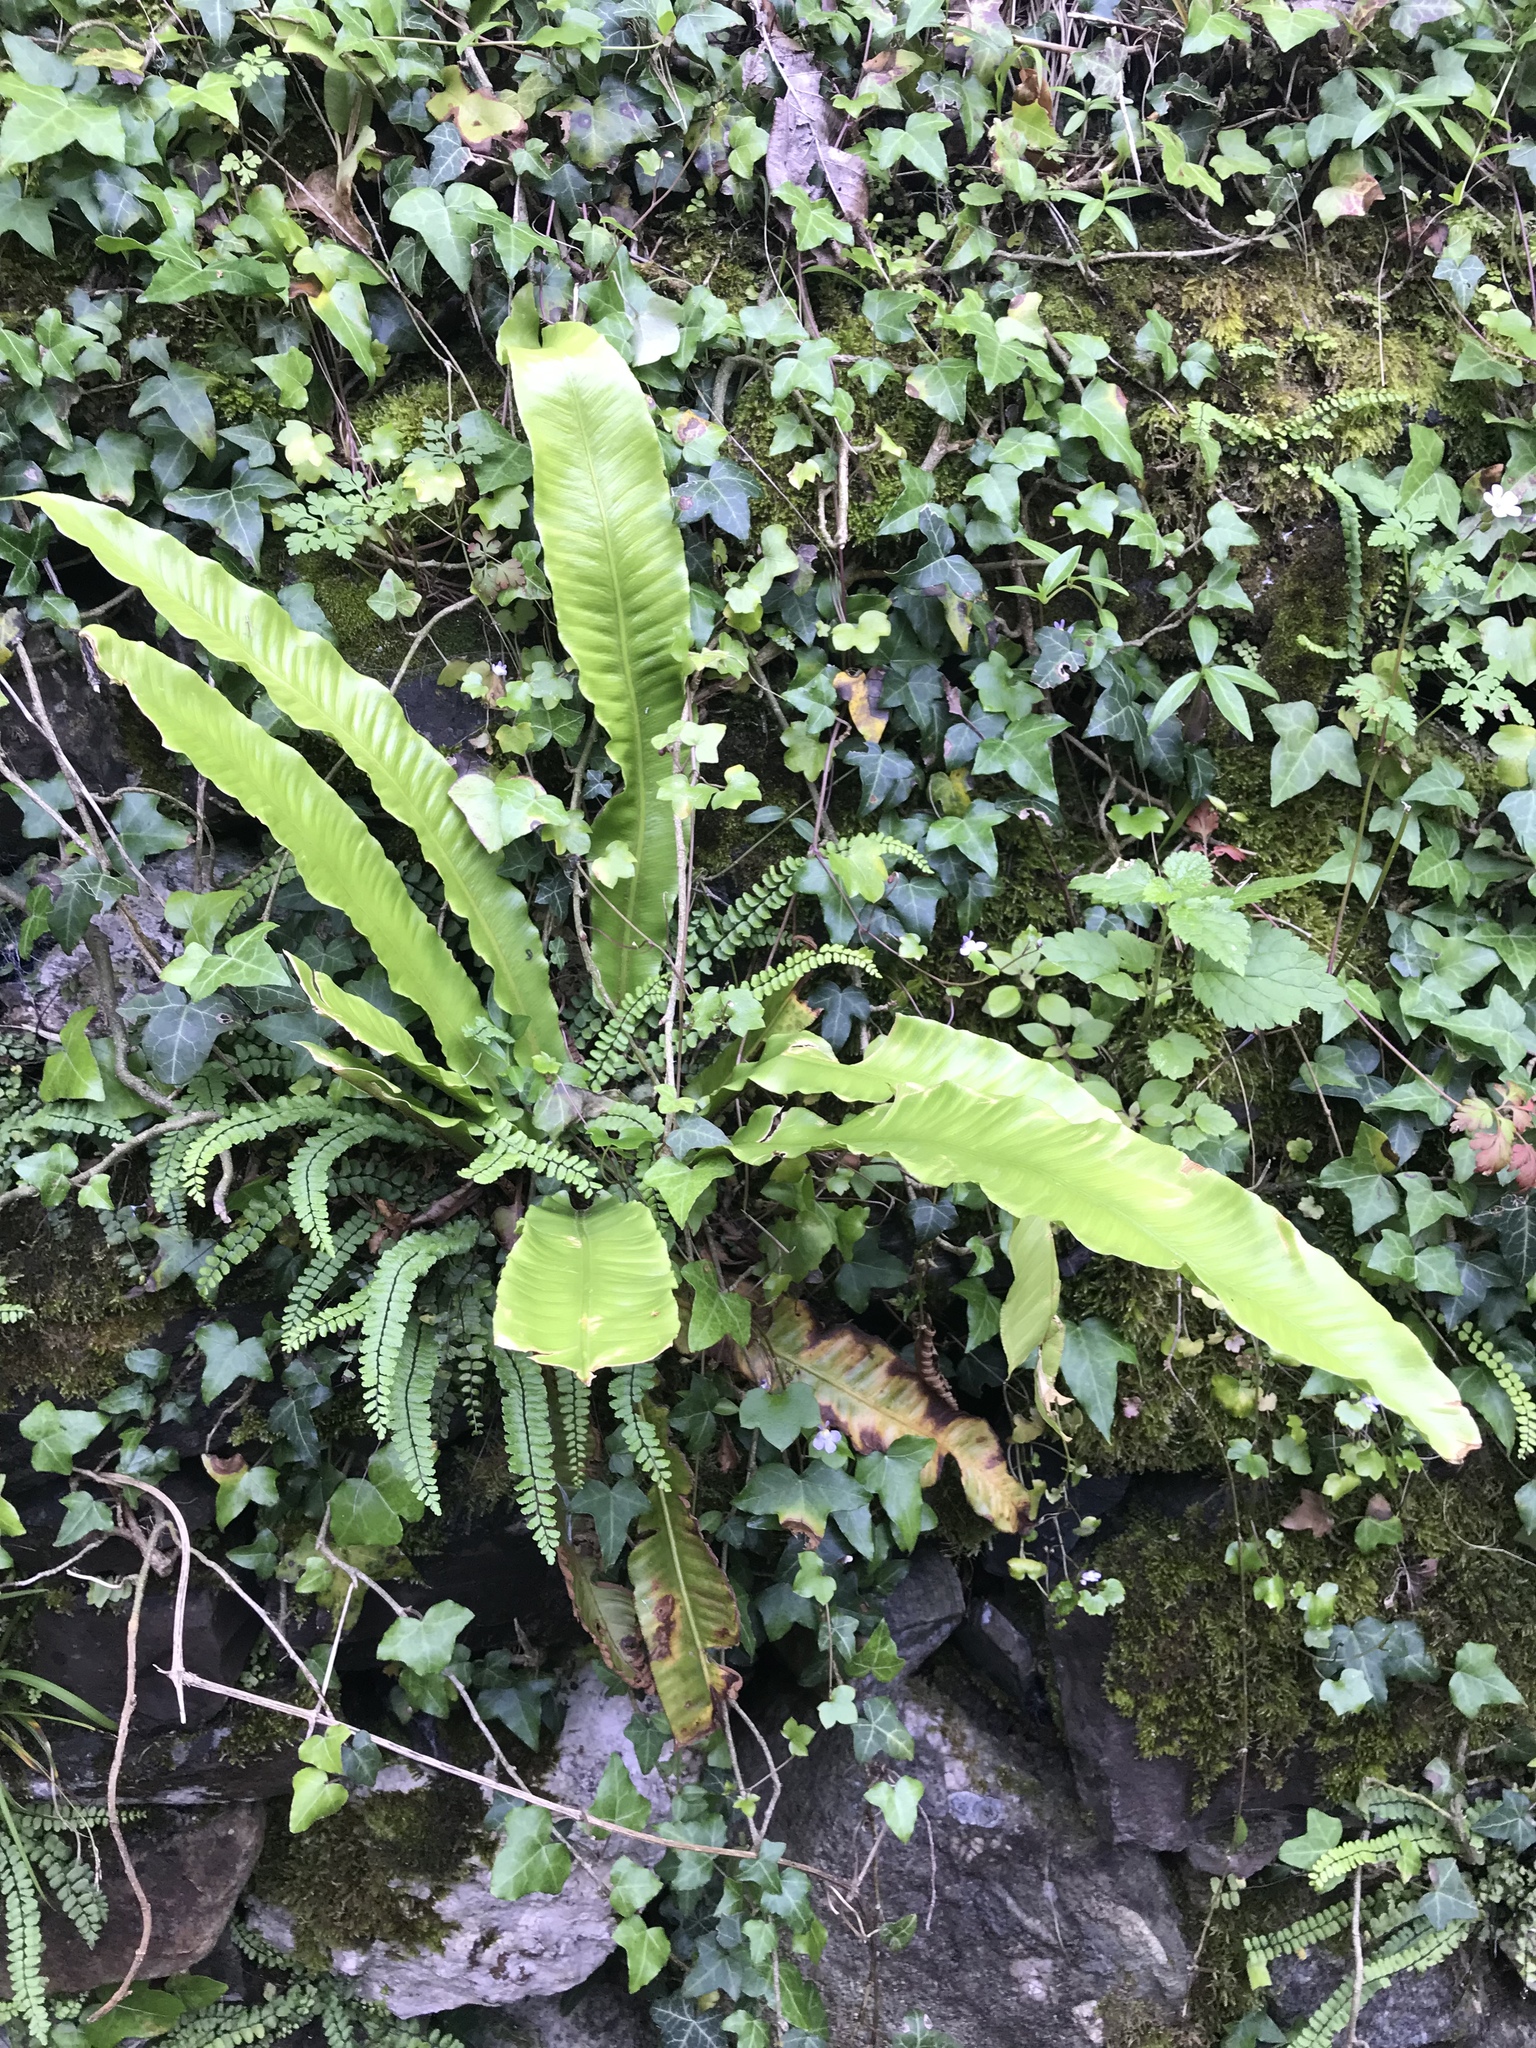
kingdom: Plantae
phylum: Tracheophyta
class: Polypodiopsida
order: Polypodiales
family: Aspleniaceae
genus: Asplenium
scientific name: Asplenium scolopendrium
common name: Hart's-tongue fern
